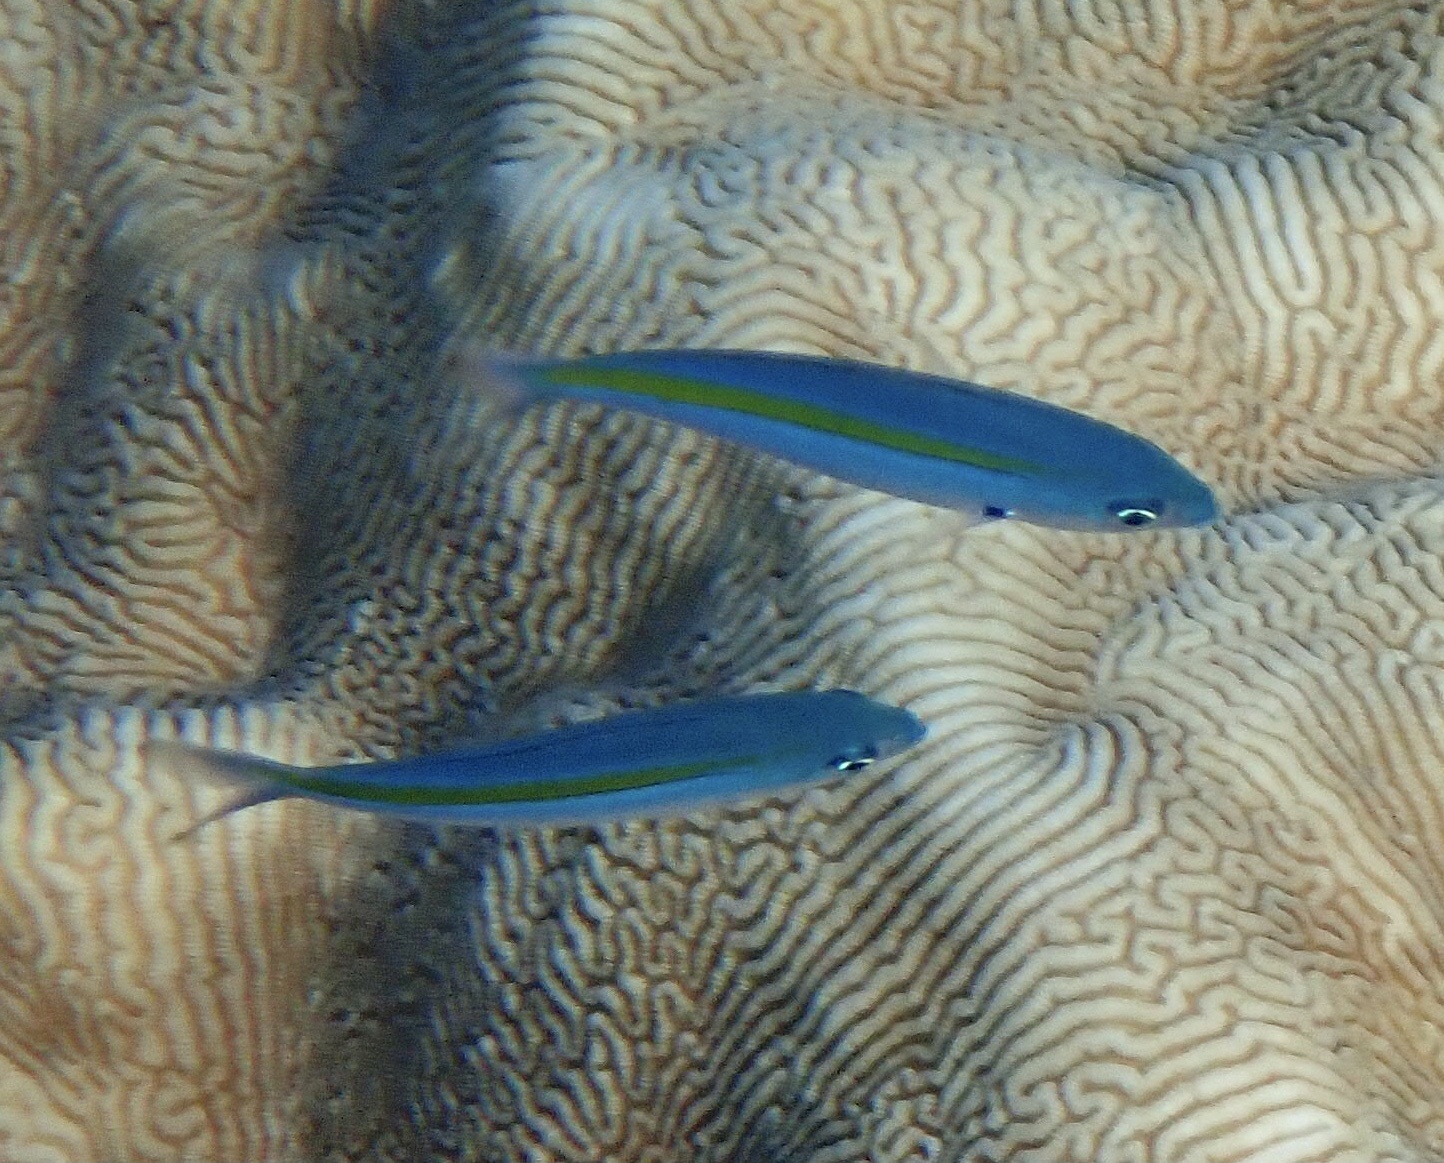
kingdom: Animalia
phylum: Chordata
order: Perciformes
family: Caesionidae
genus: Caesio
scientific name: Caesio caerulaurea
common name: Blue and gold fusilier
